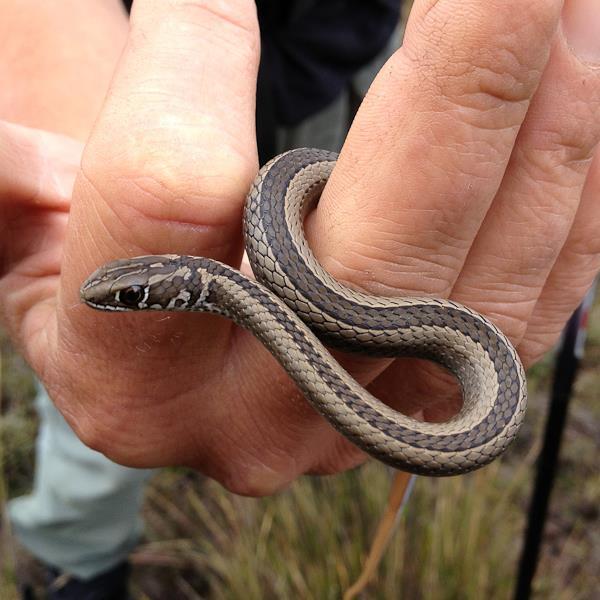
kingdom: Animalia
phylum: Chordata
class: Squamata
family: Psammophiidae
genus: Psammophis
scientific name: Psammophis crucifer
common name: Cross-marked grass snake
